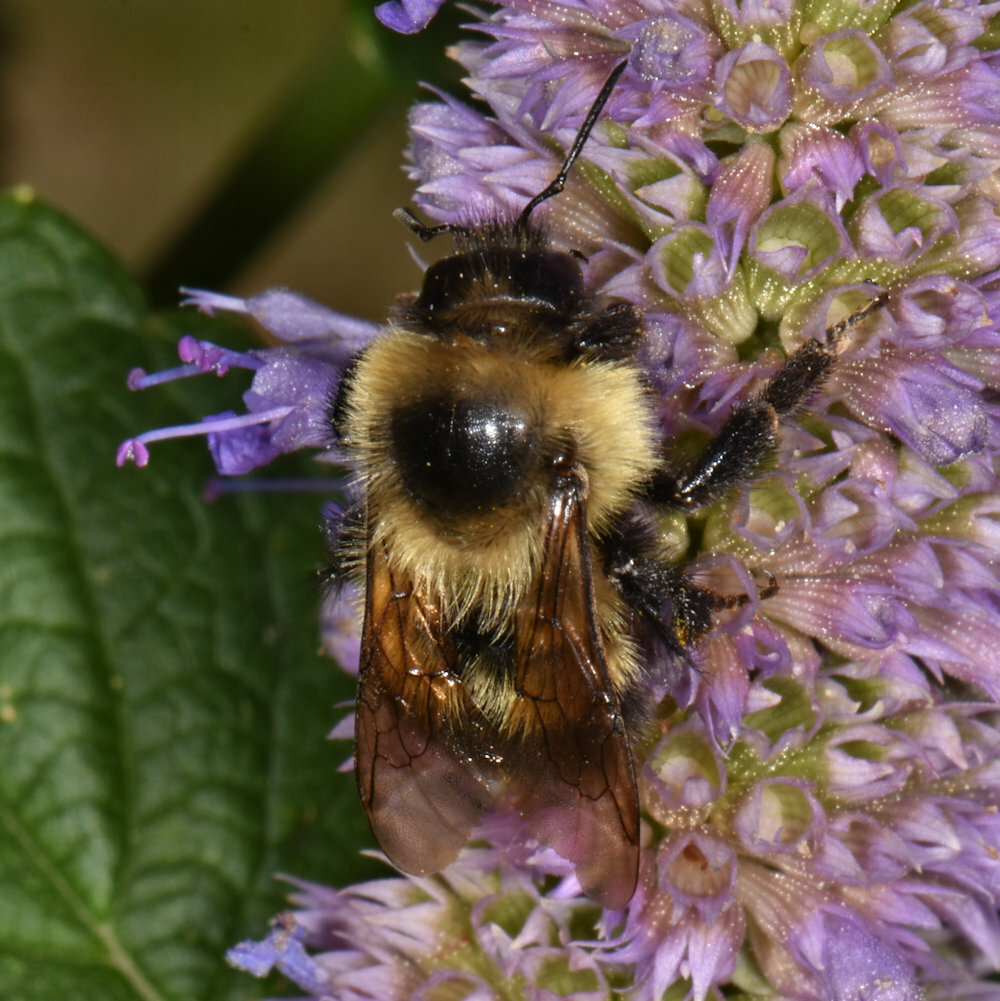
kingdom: Animalia
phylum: Arthropoda
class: Insecta
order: Hymenoptera
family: Apidae
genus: Bombus
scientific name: Bombus rufocinctus
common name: Red-belted bumble bee
